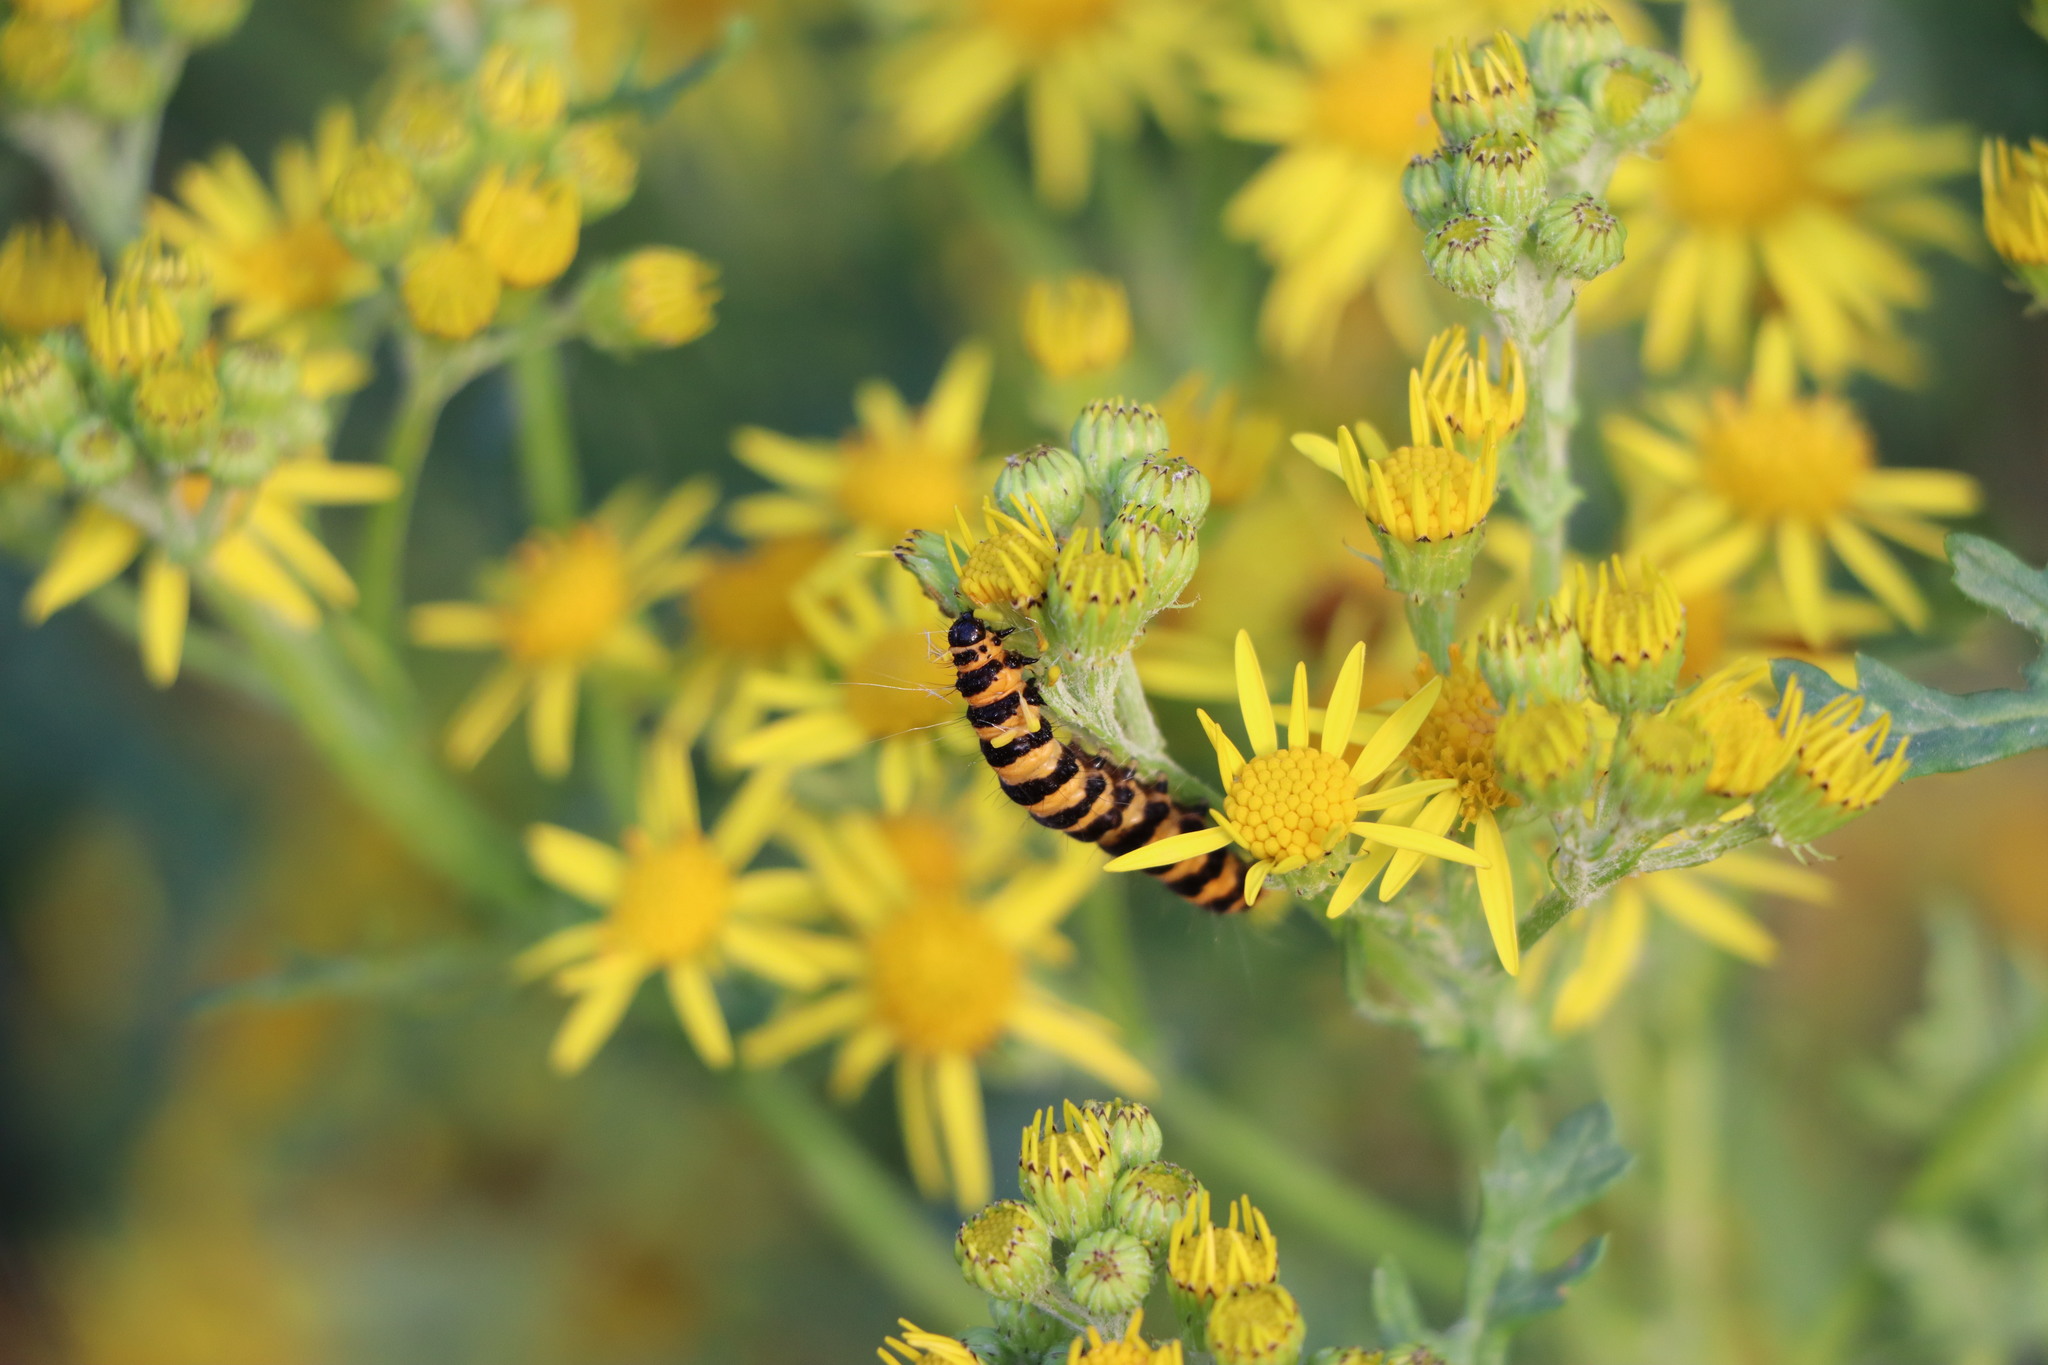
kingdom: Animalia
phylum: Arthropoda
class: Insecta
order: Lepidoptera
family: Erebidae
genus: Tyria
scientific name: Tyria jacobaeae
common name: Cinnabar
